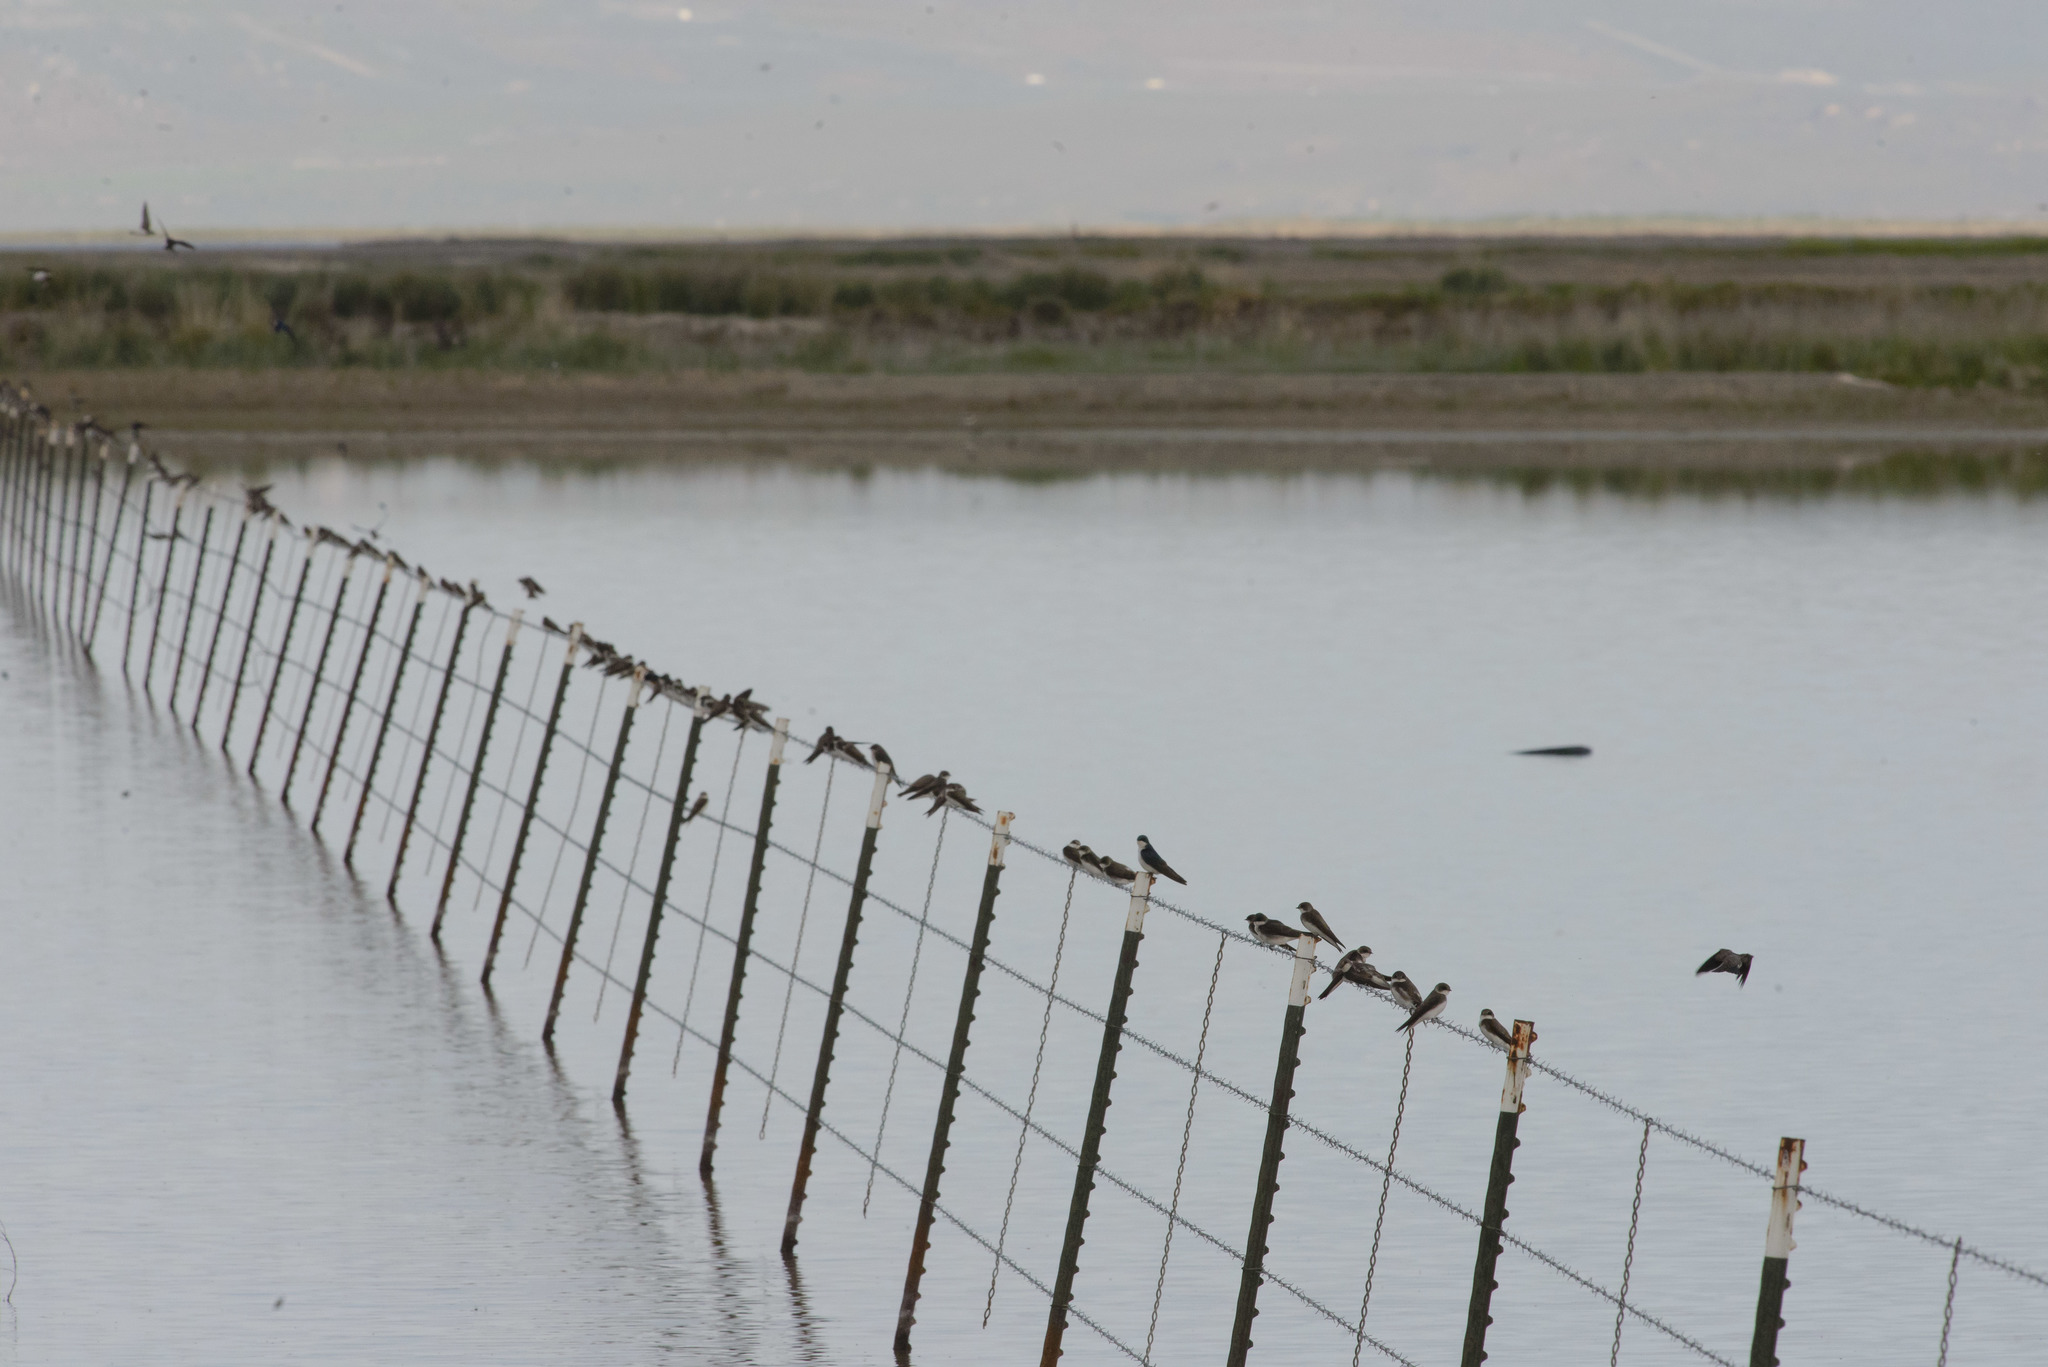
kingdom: Animalia
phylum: Chordata
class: Aves
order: Passeriformes
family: Hirundinidae
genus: Tachycineta
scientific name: Tachycineta bicolor
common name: Tree swallow
